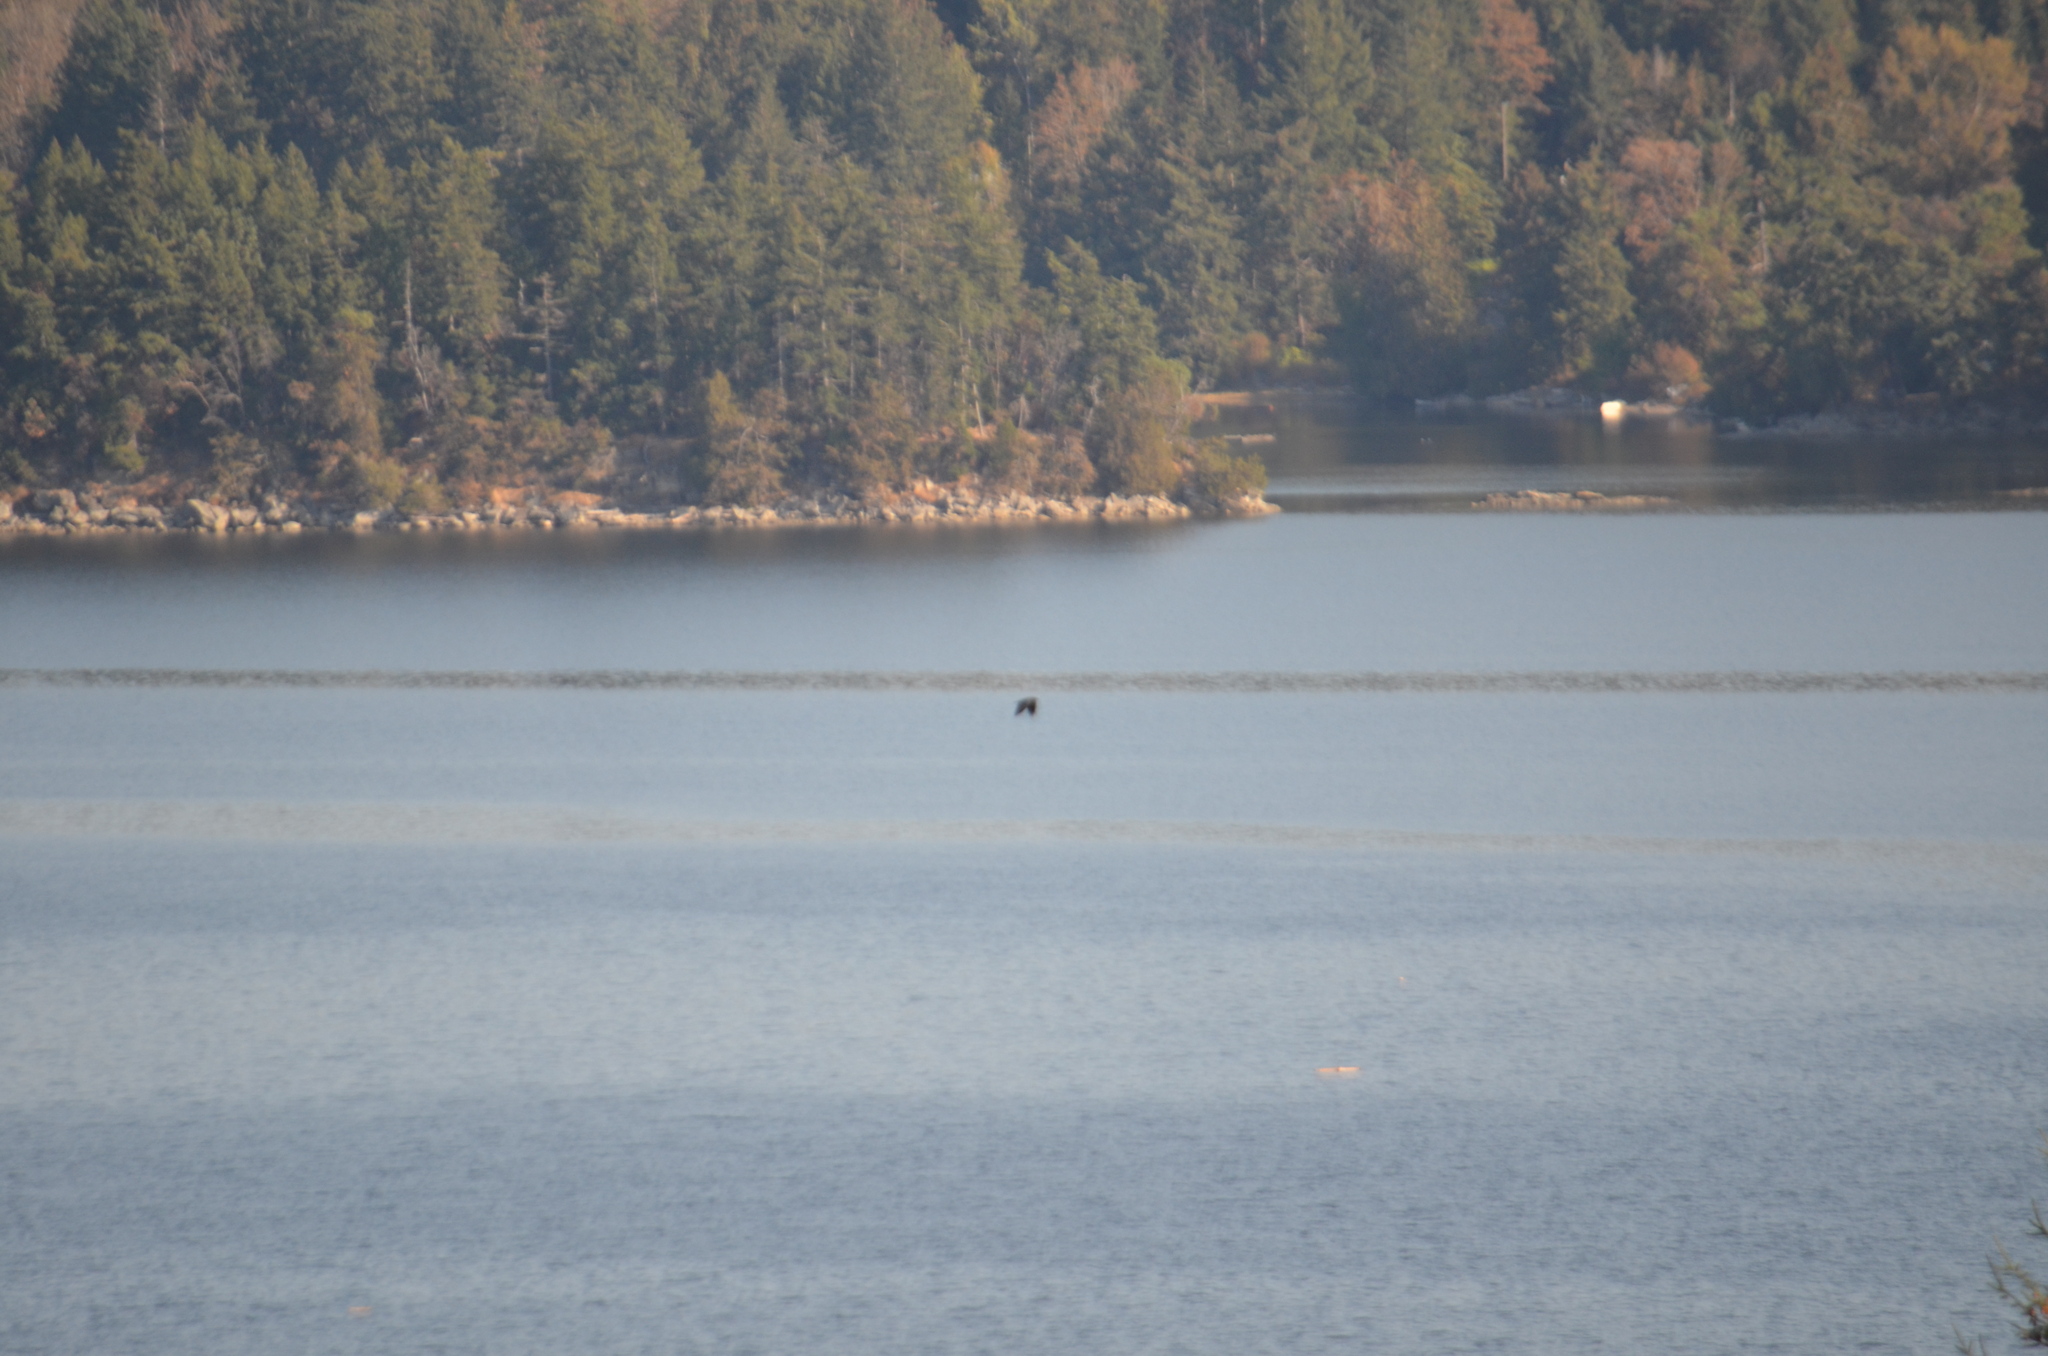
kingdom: Animalia
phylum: Chordata
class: Aves
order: Passeriformes
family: Corvidae
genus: Corvus
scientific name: Corvus brachyrhynchos
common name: American crow
